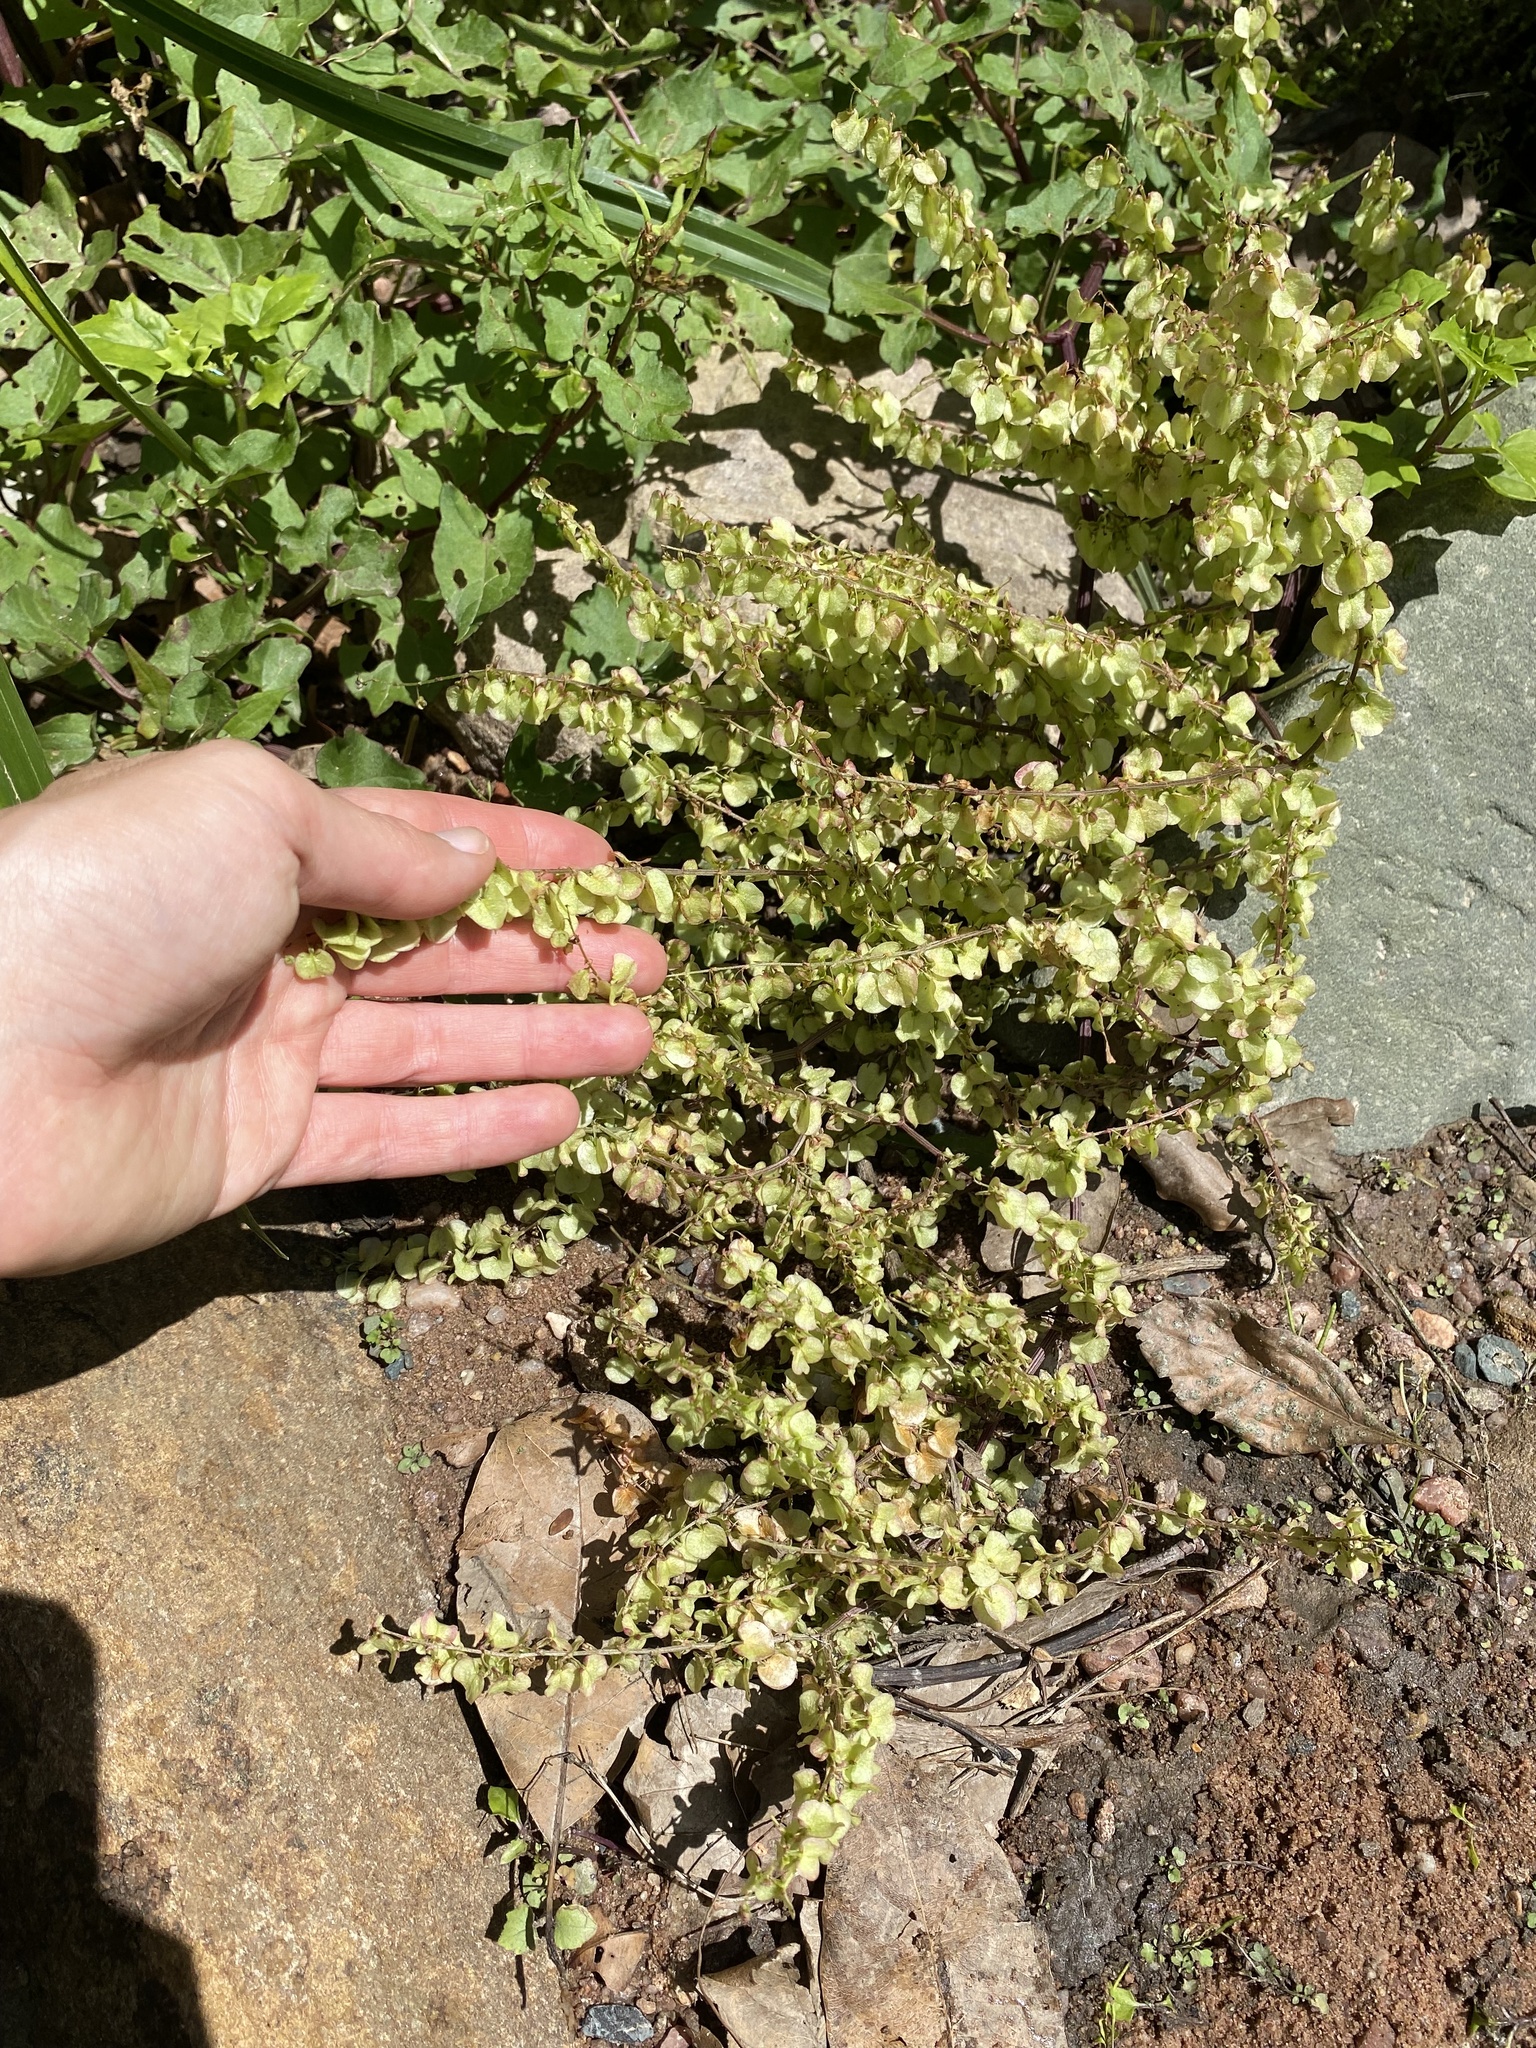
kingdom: Plantae
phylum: Tracheophyta
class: Magnoliopsida
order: Caryophyllales
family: Polygonaceae
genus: Rumex
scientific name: Rumex sagittatus
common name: Climbing dock
